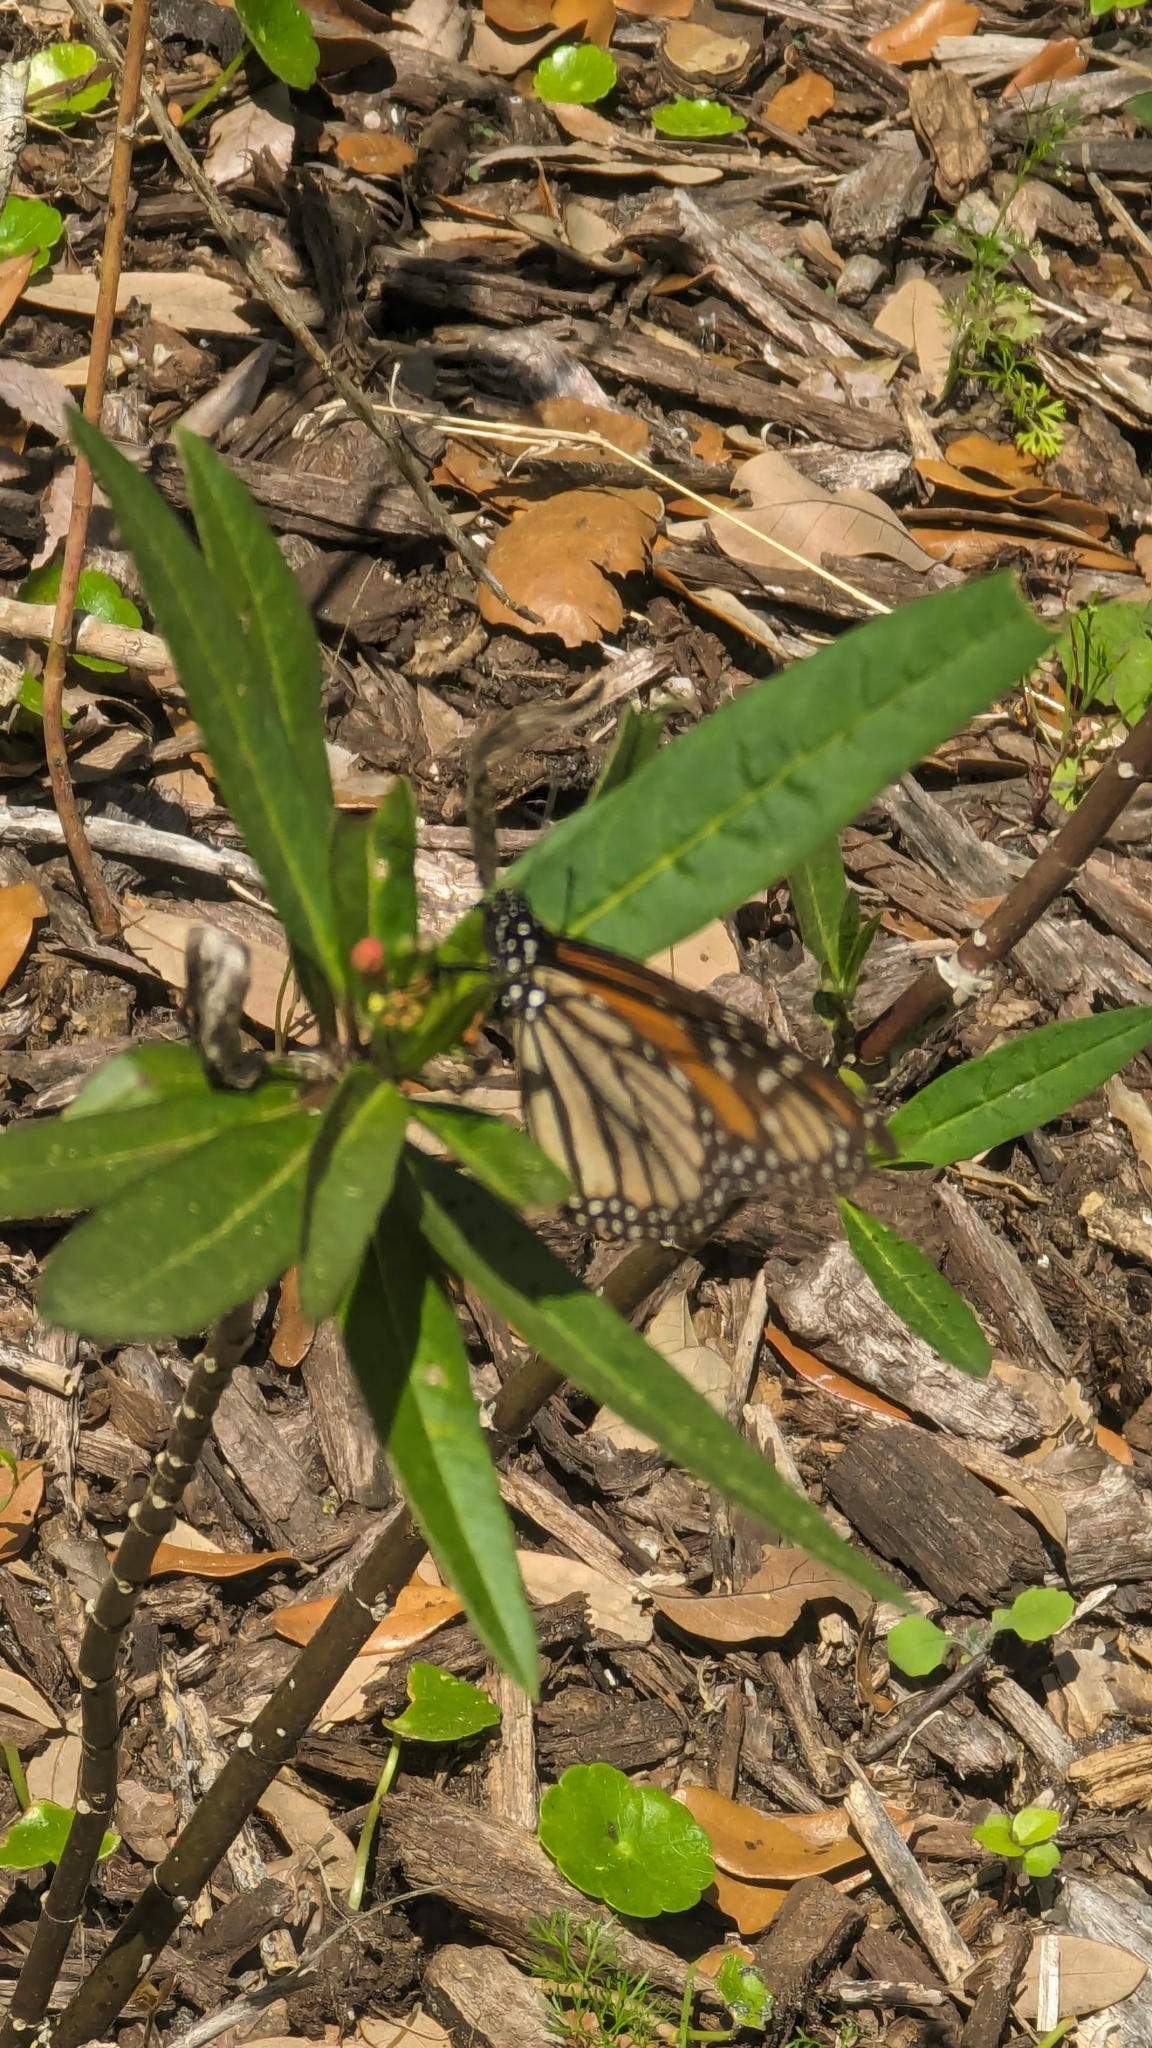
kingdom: Animalia
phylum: Arthropoda
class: Insecta
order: Lepidoptera
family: Nymphalidae
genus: Danaus
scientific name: Danaus plexippus
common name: Monarch
